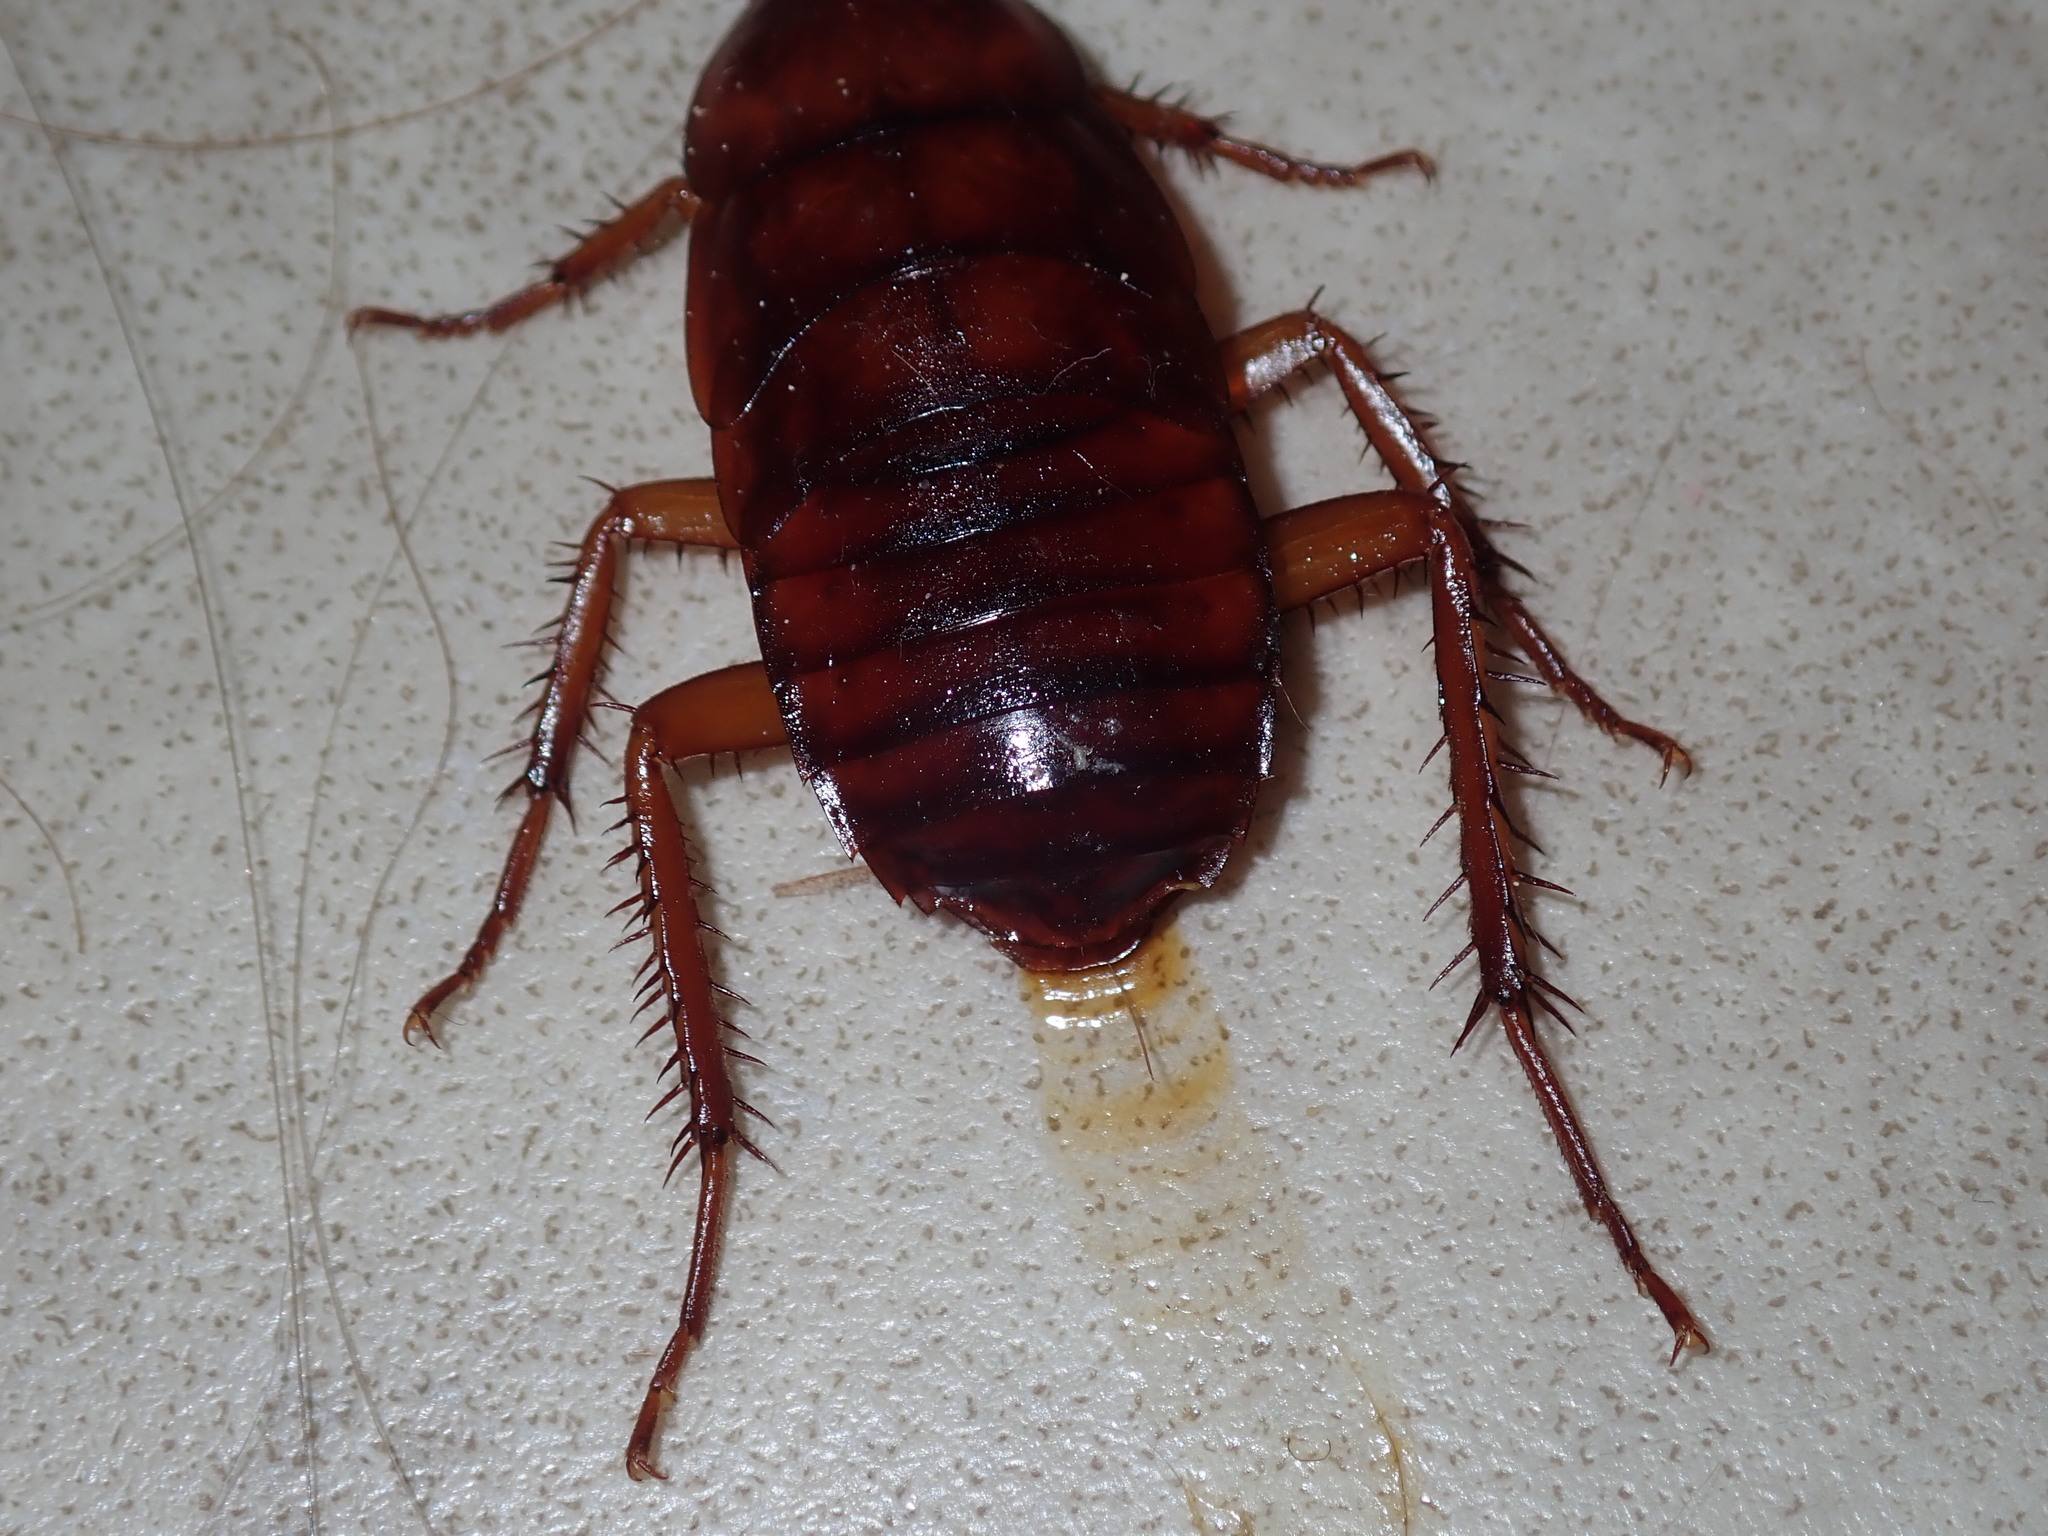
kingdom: Animalia
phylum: Arthropoda
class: Insecta
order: Blattodea
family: Blattidae
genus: Periplaneta
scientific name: Periplaneta fuliginosa
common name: Smokeybrown cockroad
